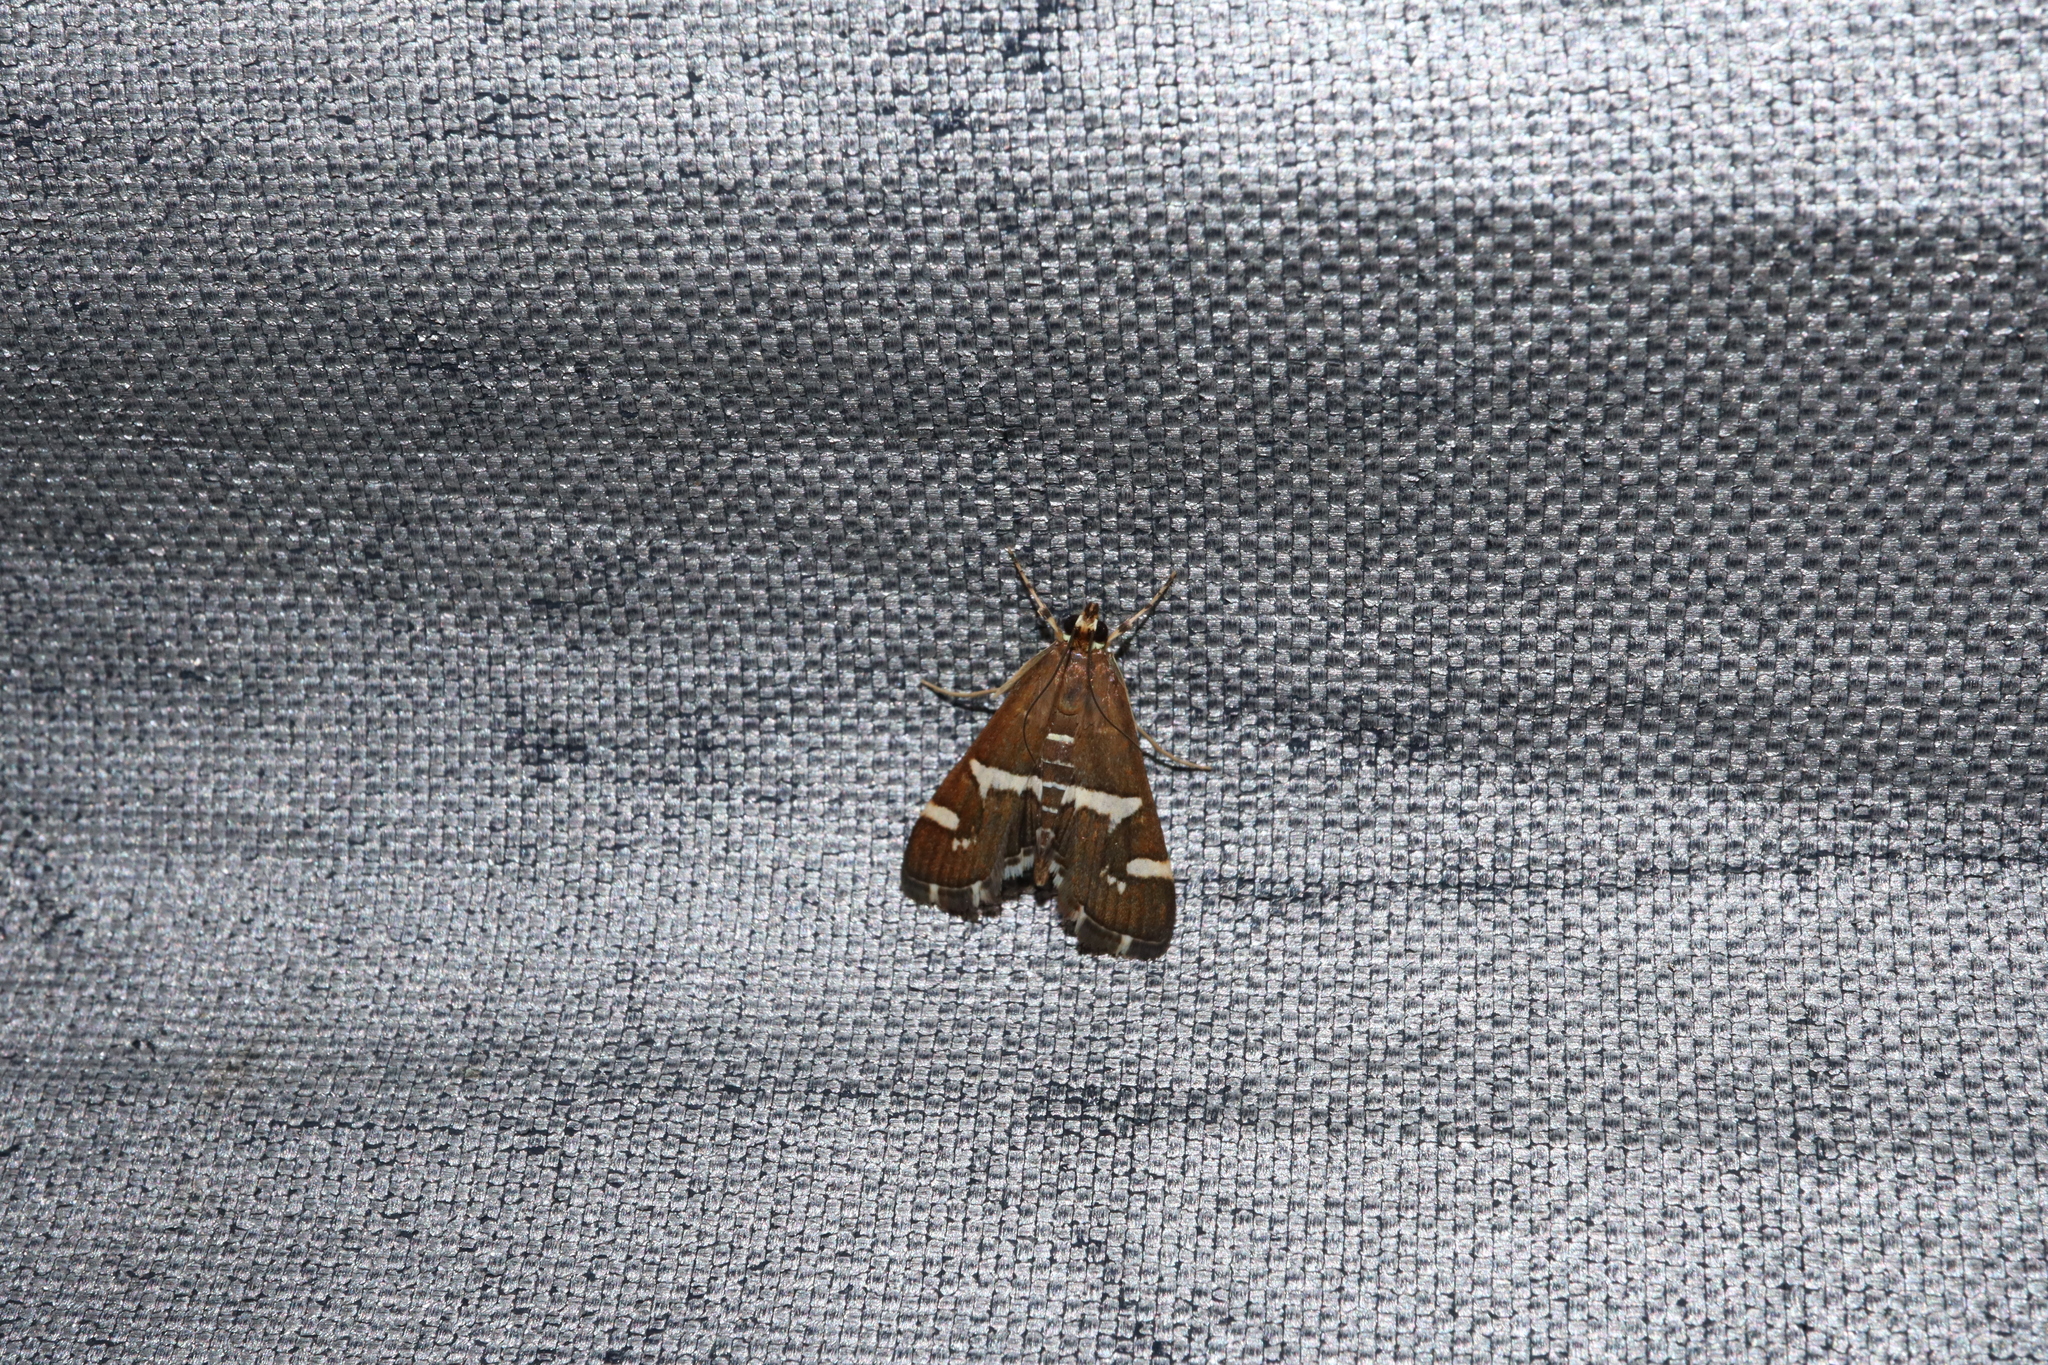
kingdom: Animalia
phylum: Arthropoda
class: Insecta
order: Lepidoptera
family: Crambidae
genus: Spoladea
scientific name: Spoladea recurvalis
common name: Beet webworm moth
